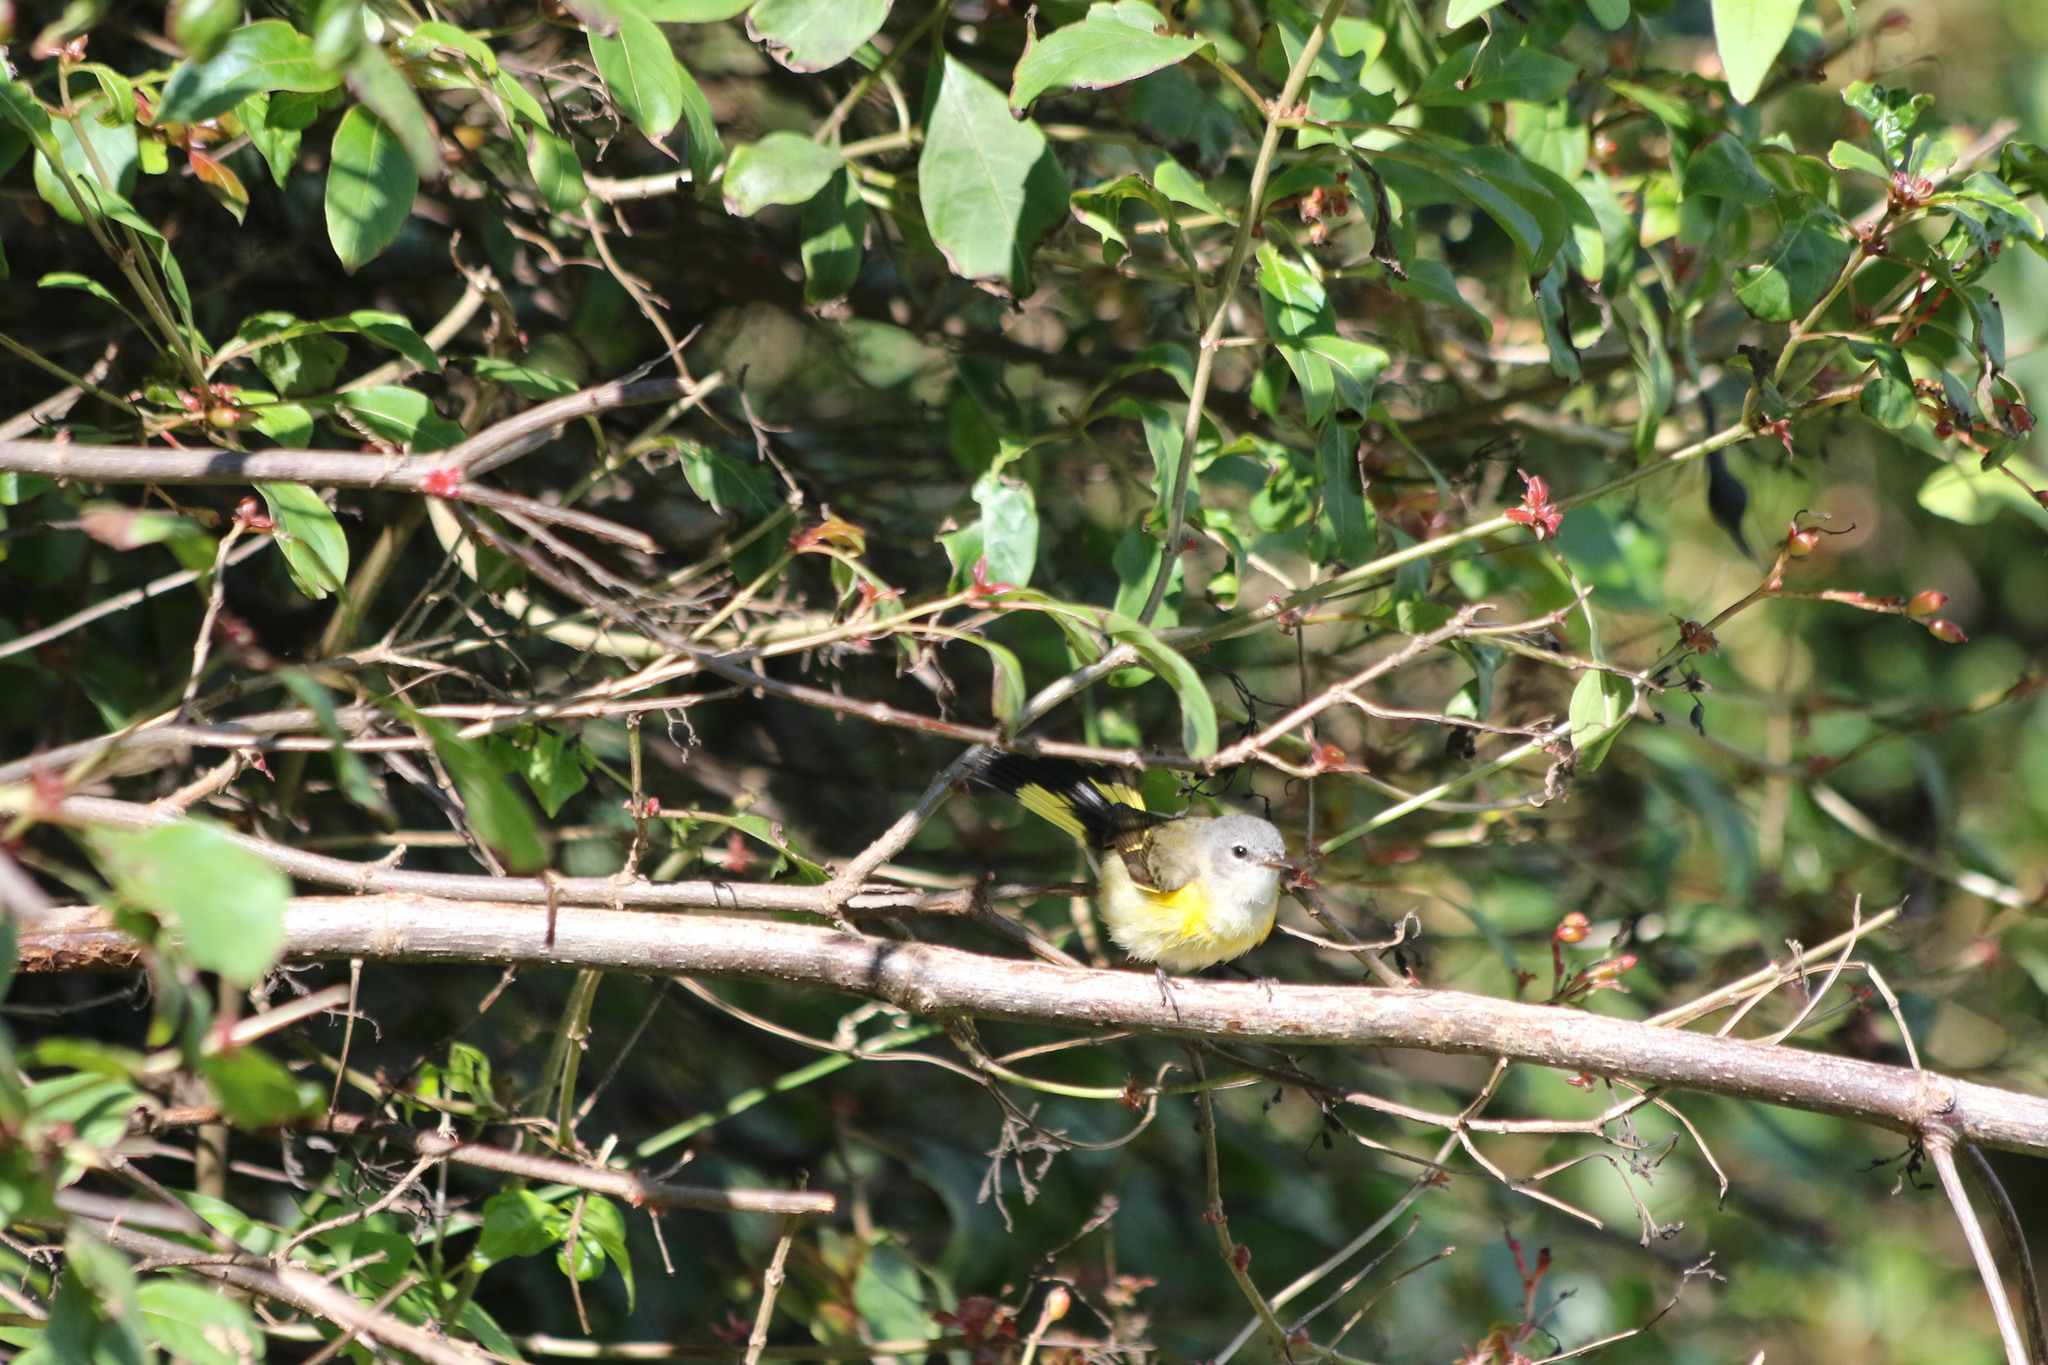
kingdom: Animalia
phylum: Chordata
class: Aves
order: Passeriformes
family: Parulidae
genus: Setophaga
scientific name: Setophaga ruticilla
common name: American redstart
